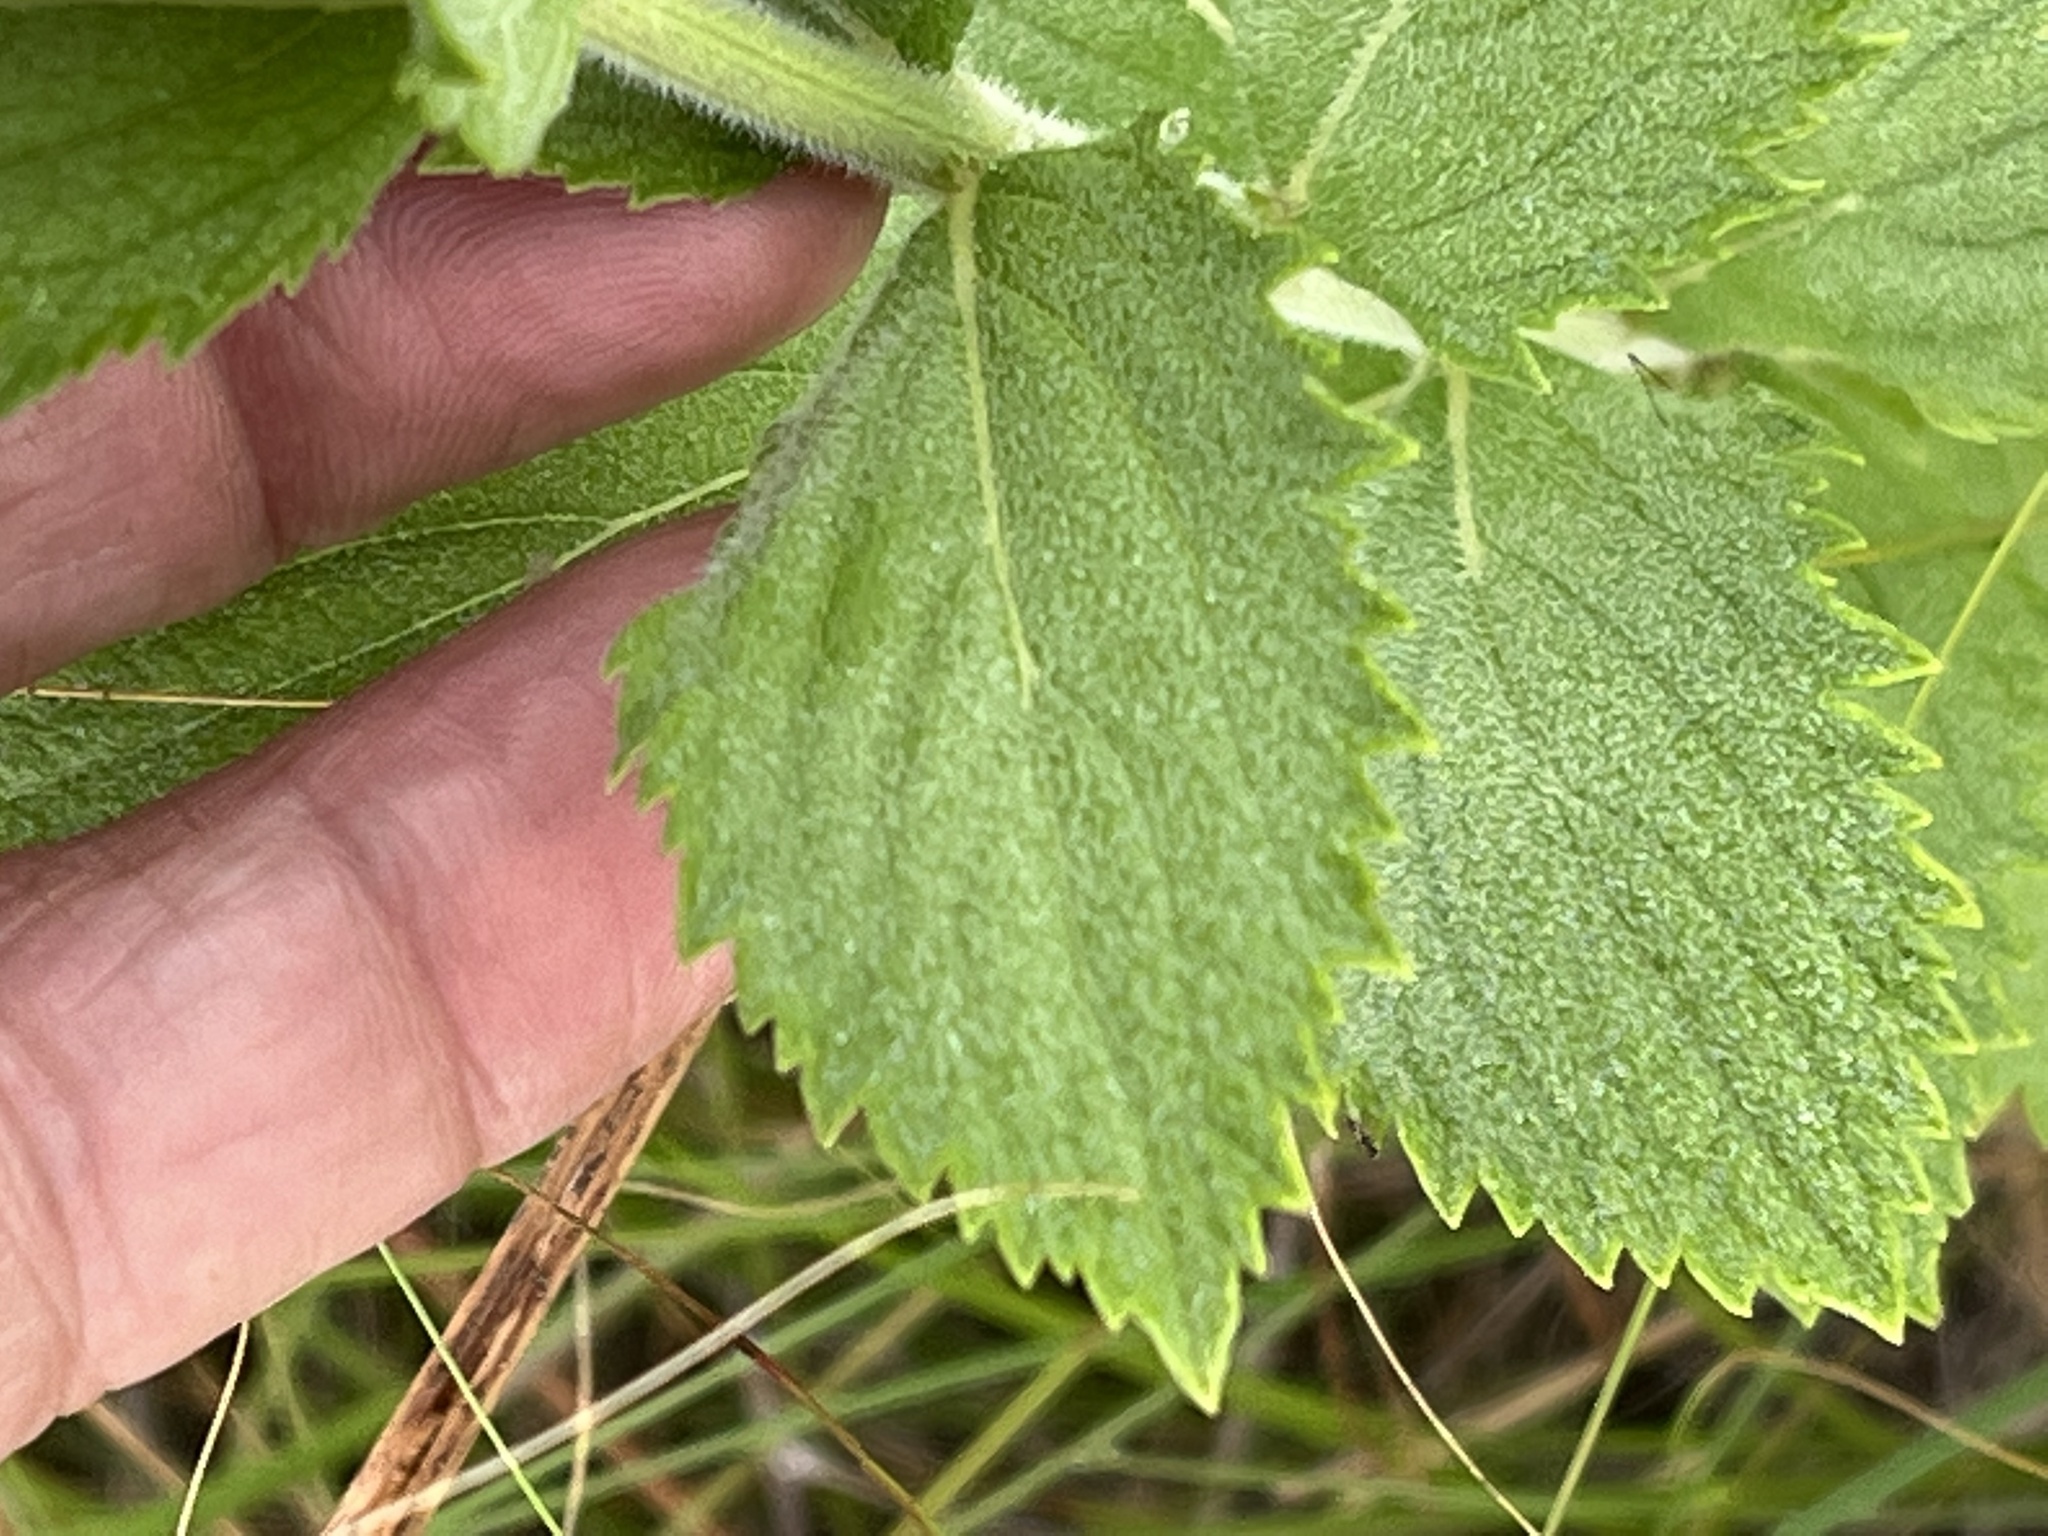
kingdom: Plantae
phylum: Tracheophyta
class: Magnoliopsida
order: Lamiales
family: Verbenaceae
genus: Verbena
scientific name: Verbena stricta
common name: Hoary vervain
